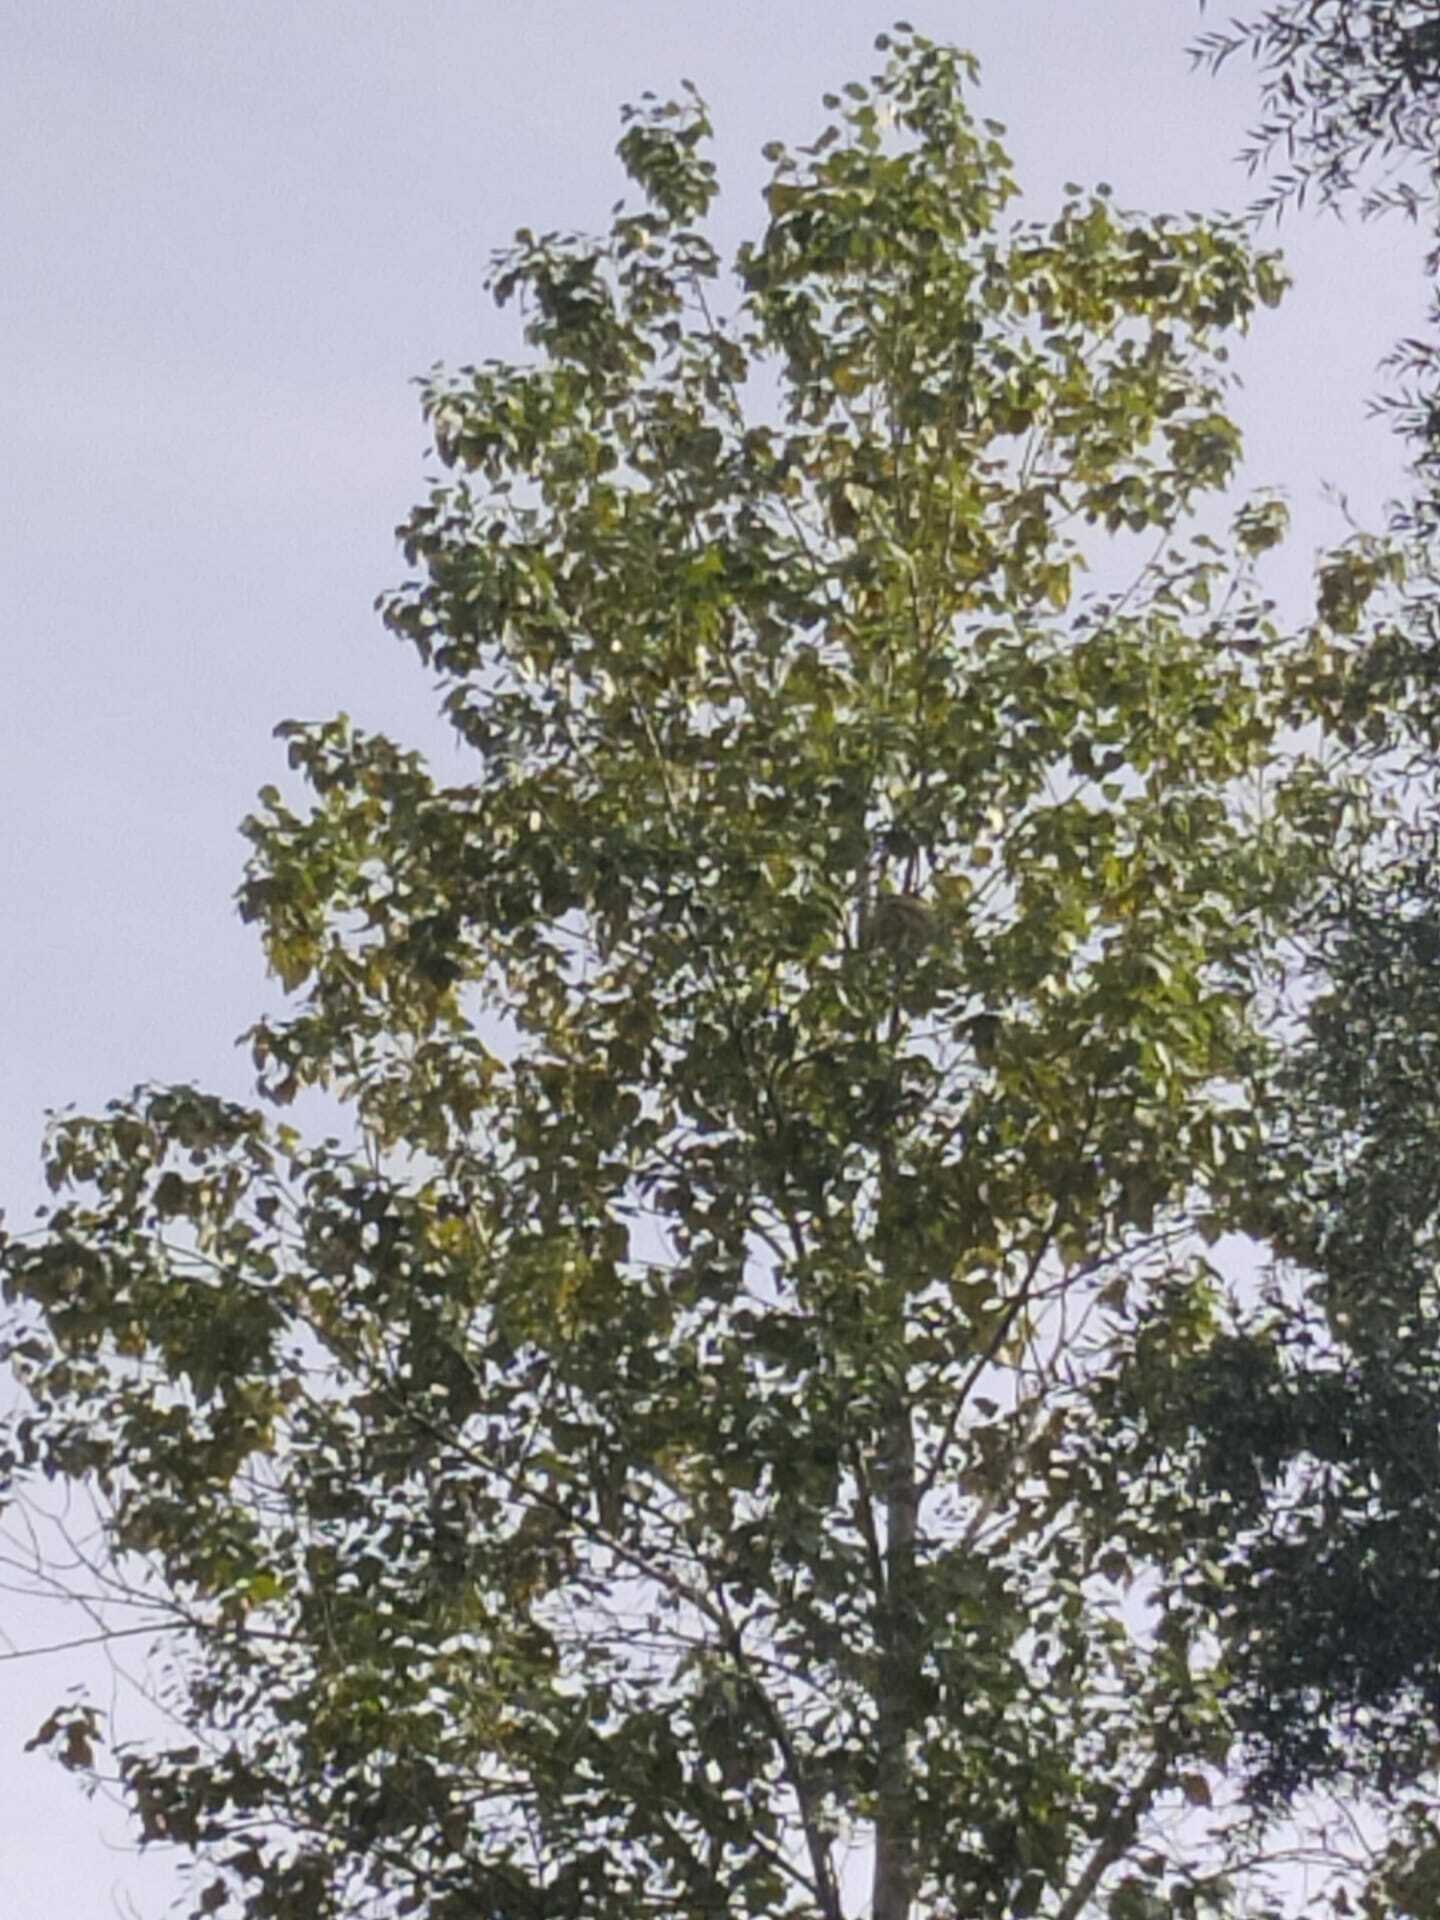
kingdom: Animalia
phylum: Arthropoda
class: Insecta
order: Hymenoptera
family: Vespidae
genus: Vespa
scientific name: Vespa velutina
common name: Asian hornet
